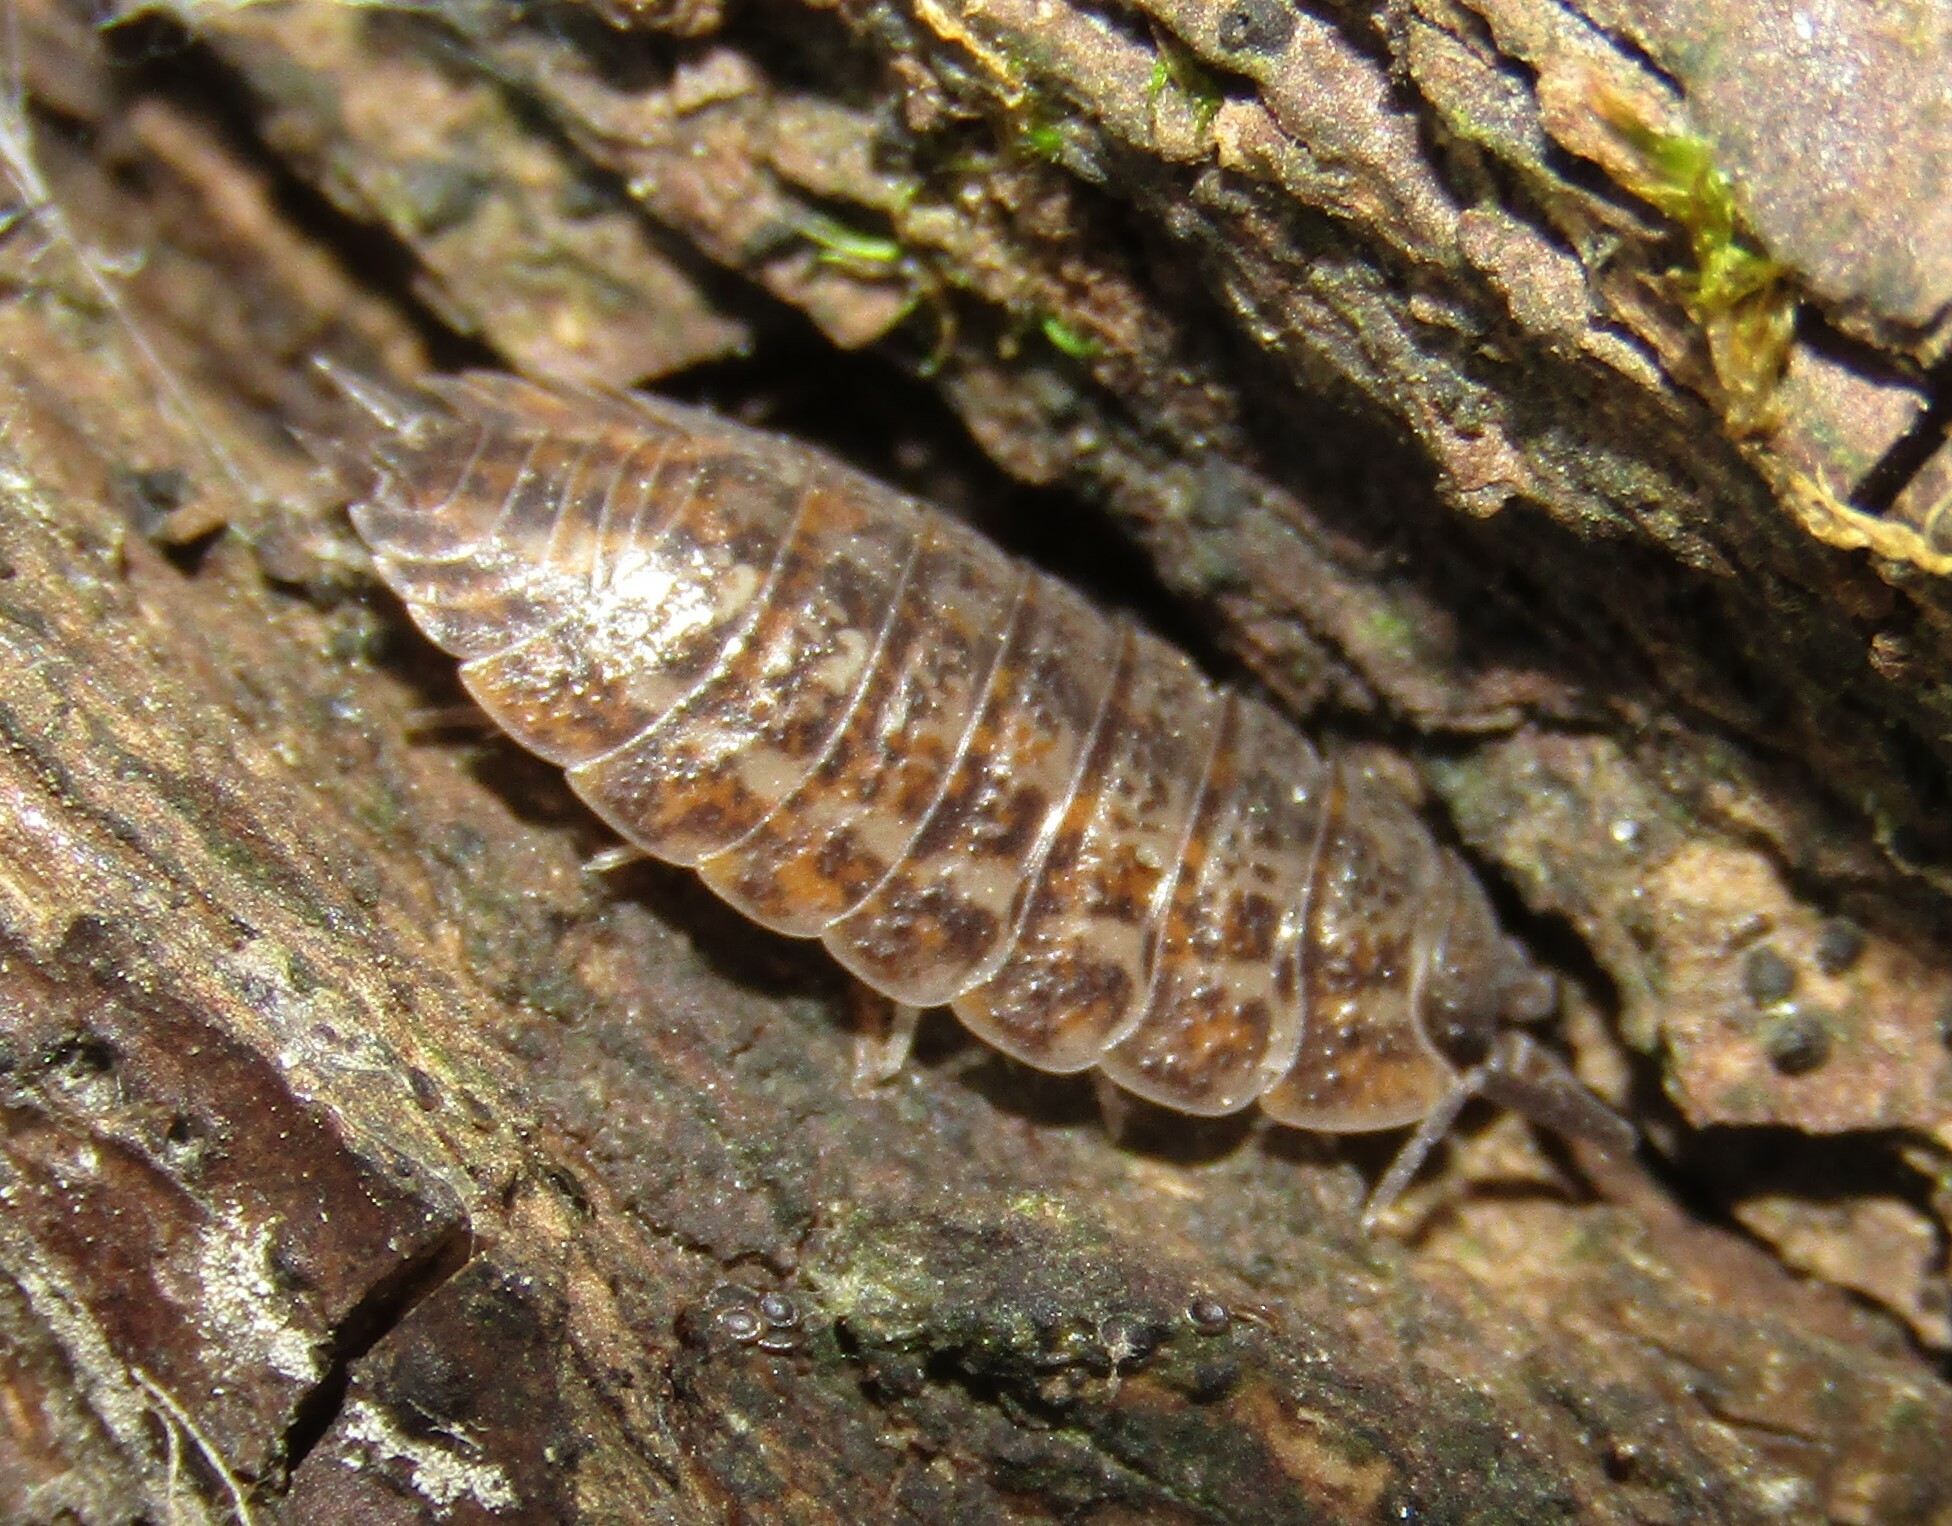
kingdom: Animalia
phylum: Arthropoda
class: Malacostraca
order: Isopoda
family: Trachelipodidae
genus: Trachelipus
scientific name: Trachelipus rathkii
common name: Isopod
